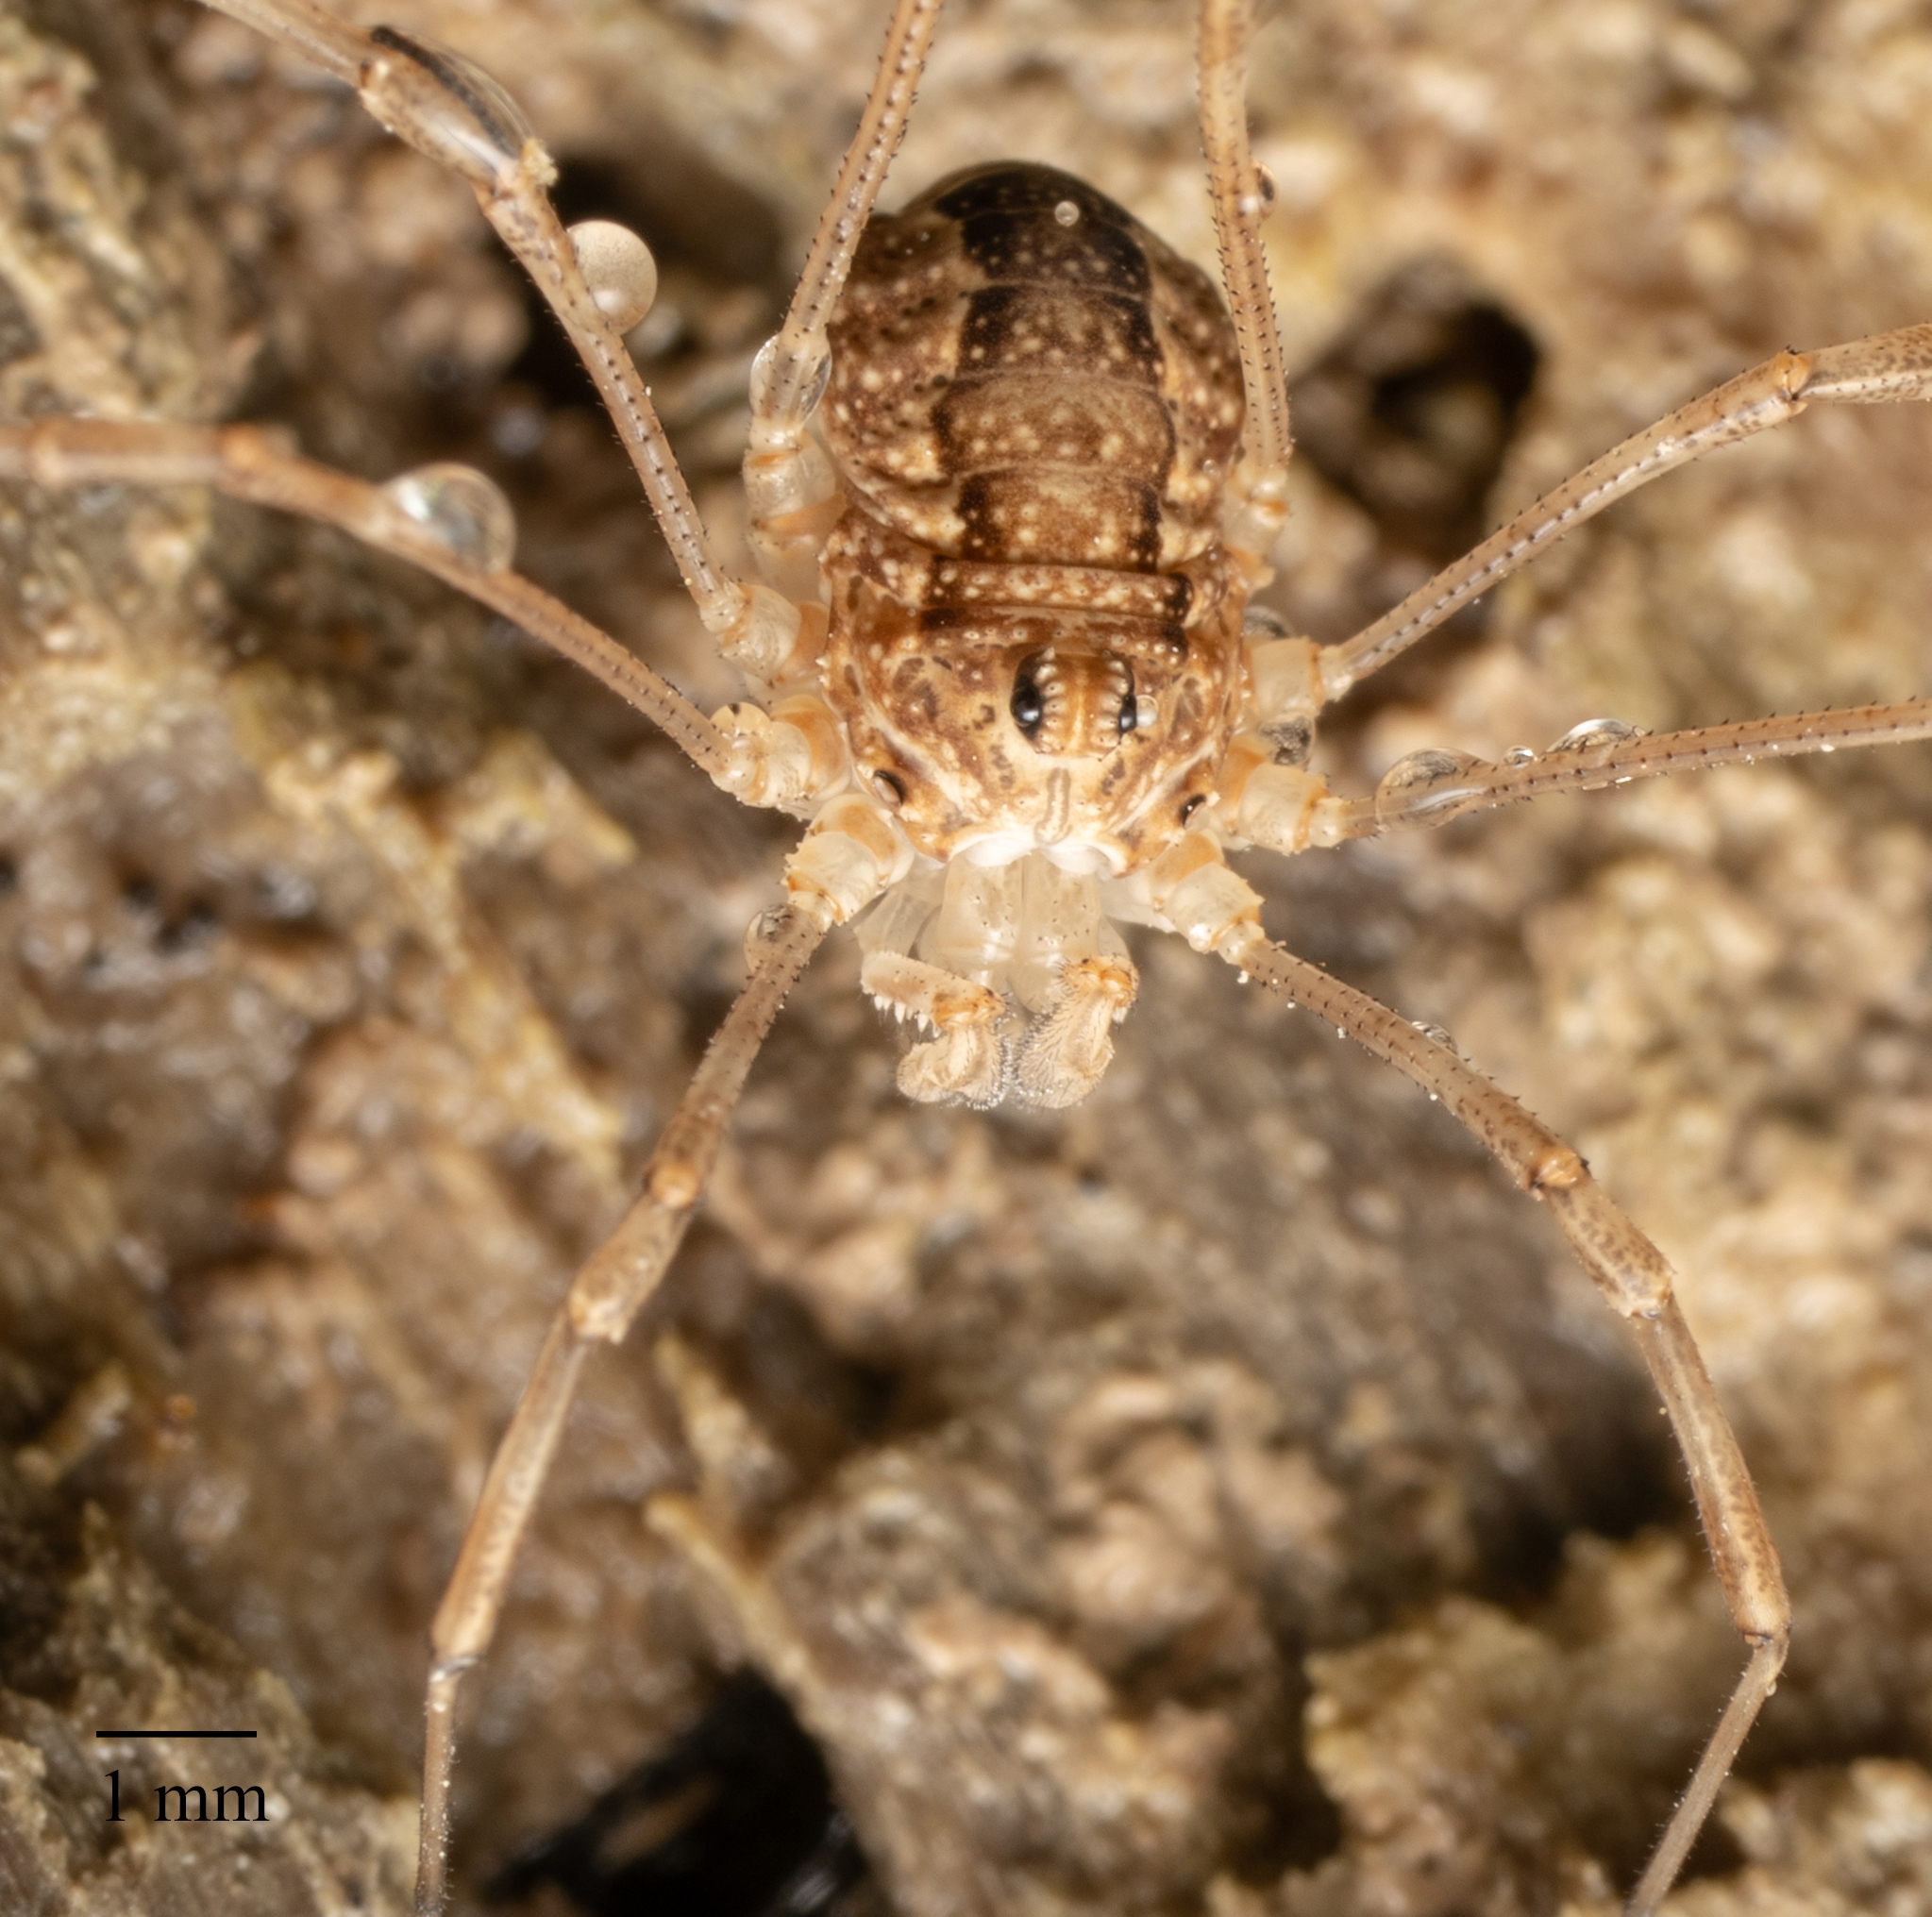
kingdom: Animalia
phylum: Arthropoda
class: Arachnida
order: Opiliones
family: Phalangiidae
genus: Rilaena
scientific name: Rilaena triangularis
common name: Spring harvestman
